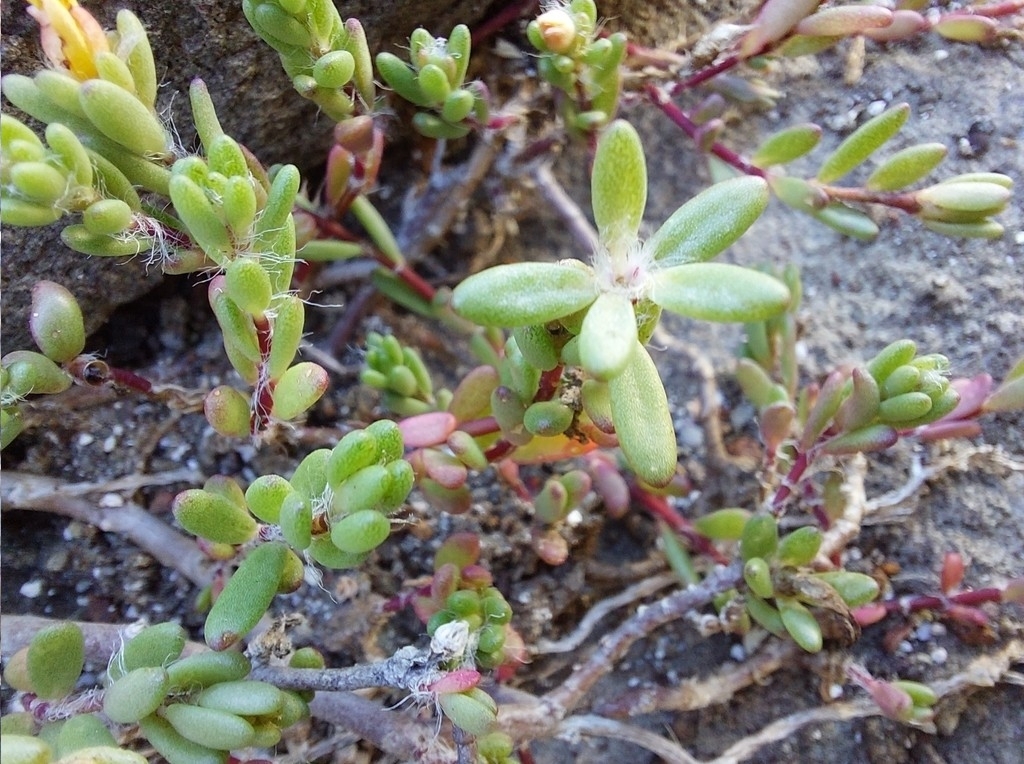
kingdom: Plantae
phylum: Tracheophyta
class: Magnoliopsida
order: Caryophyllales
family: Portulacaceae
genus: Portulaca
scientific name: Portulaca psammotropha
